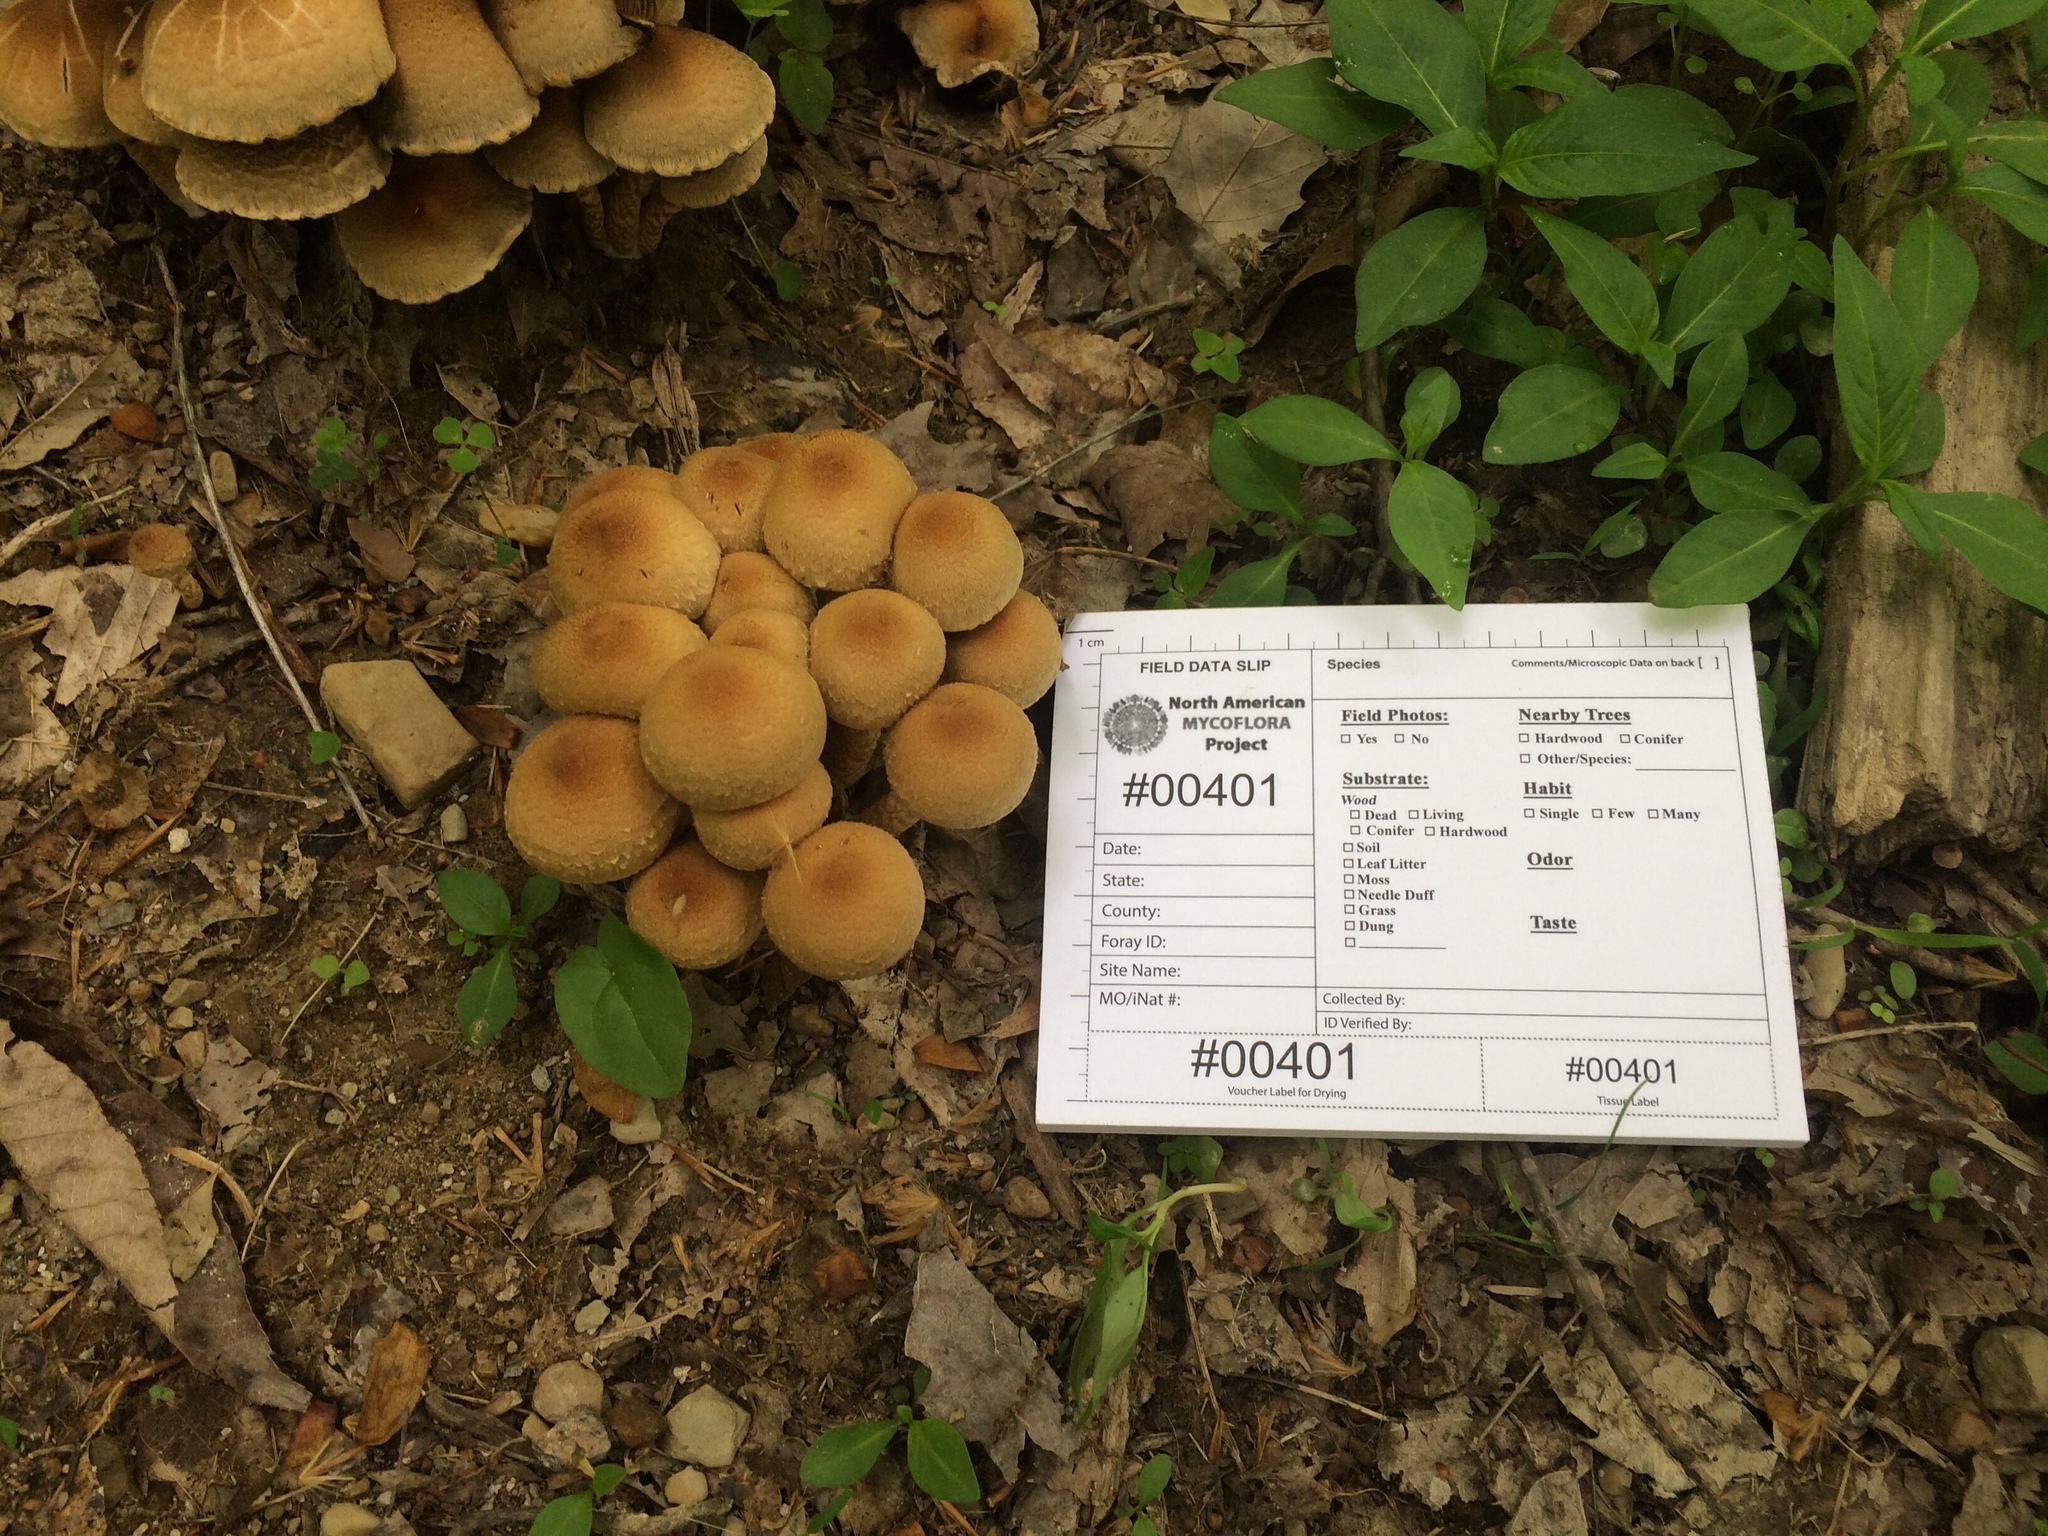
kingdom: Fungi
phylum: Basidiomycota
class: Agaricomycetes
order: Agaricales
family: Psathyrellaceae
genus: Lacrymaria
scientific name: Lacrymaria lacrymabunda
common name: Weeping widow
